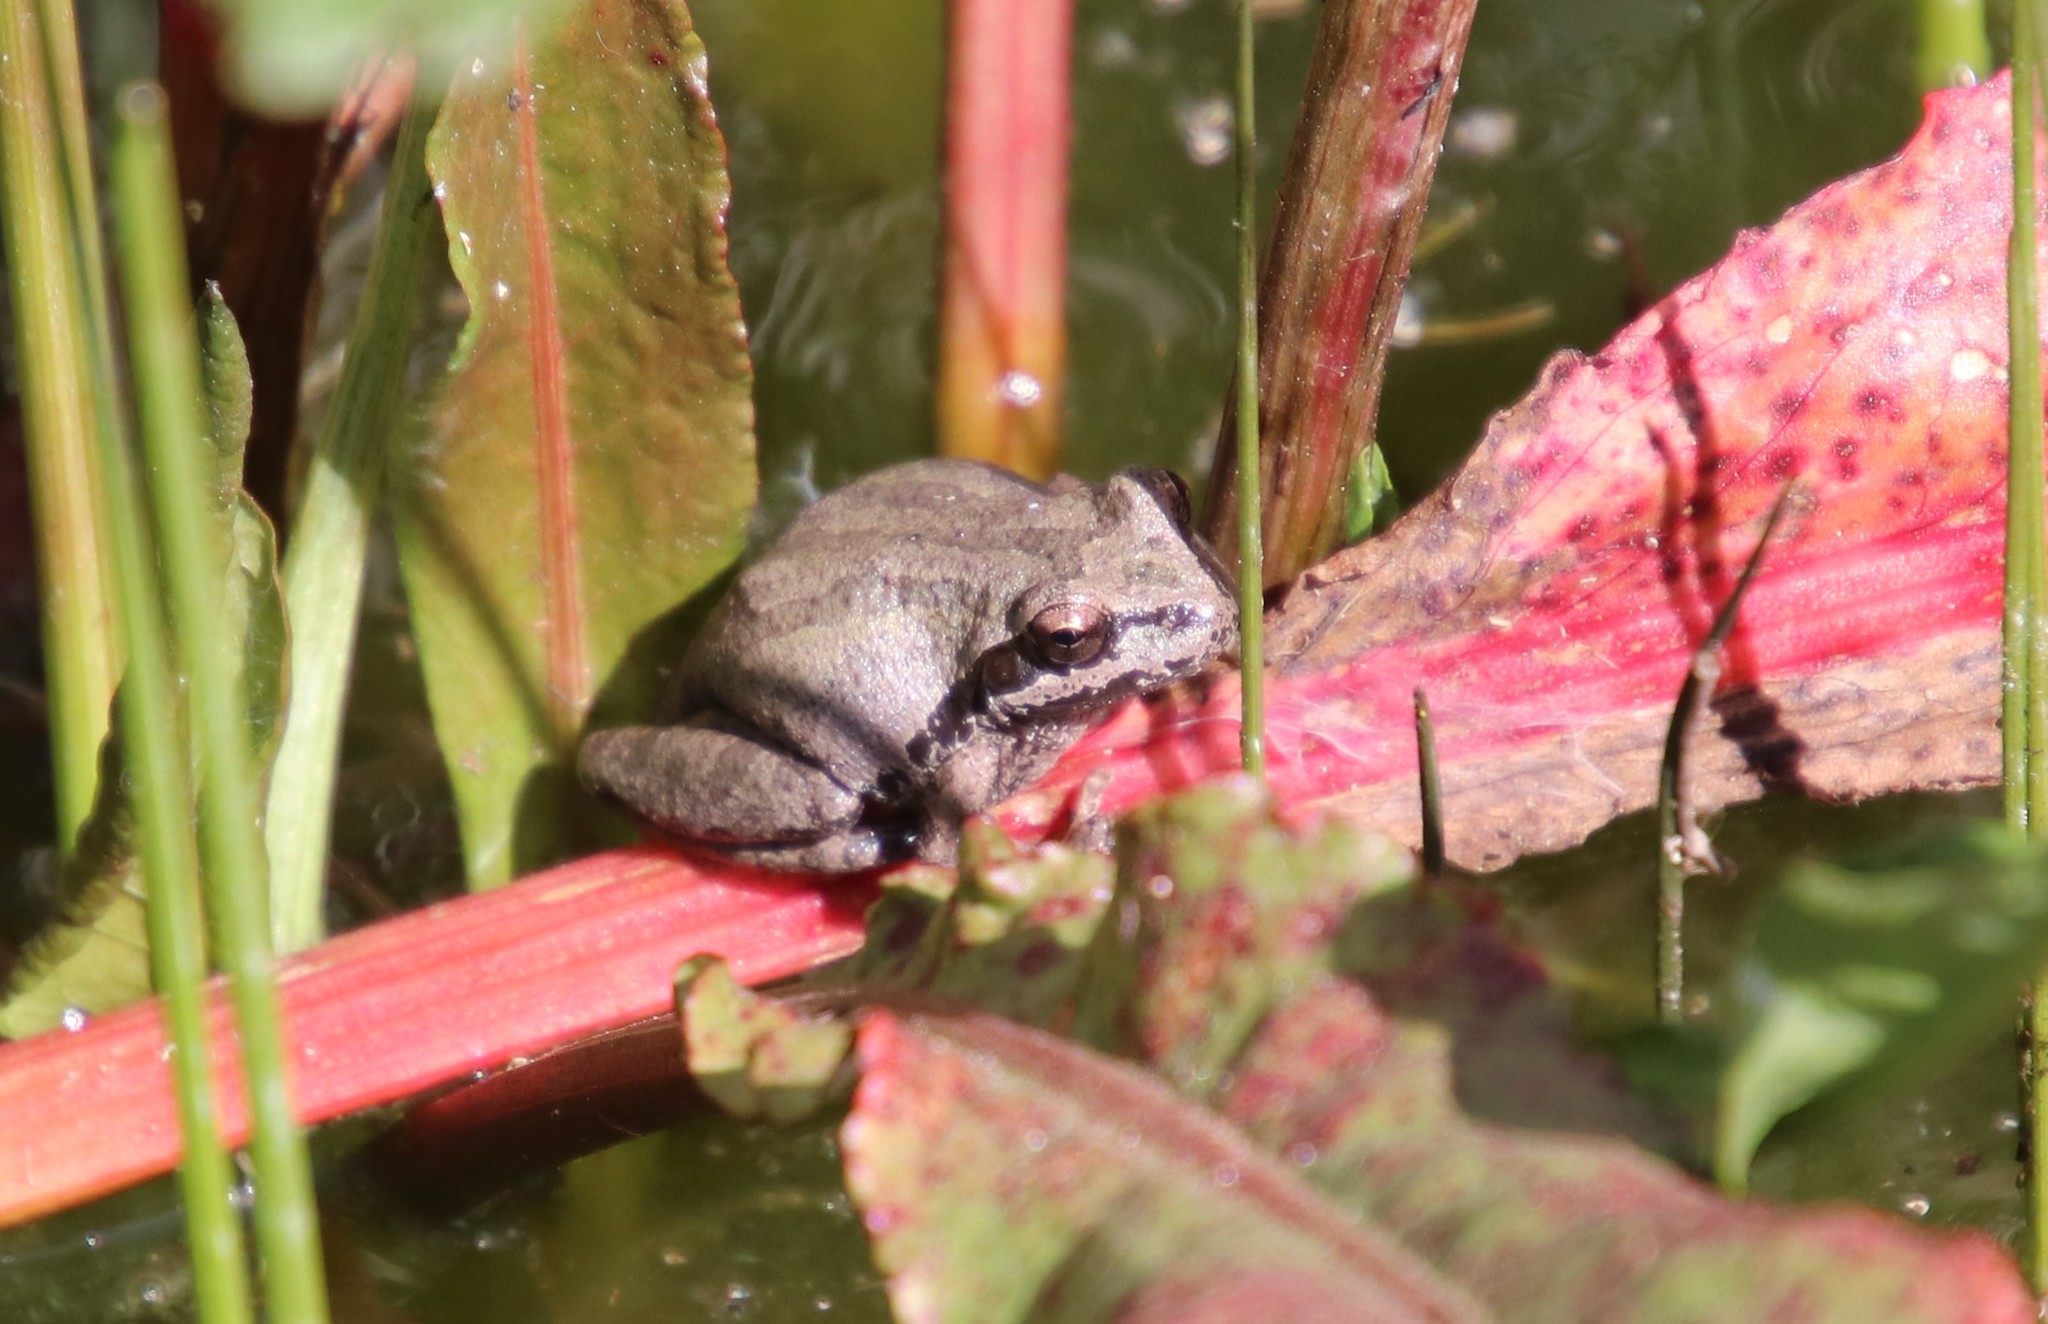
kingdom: Animalia
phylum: Chordata
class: Amphibia
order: Anura
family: Hylidae
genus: Pseudacris
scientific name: Pseudacris regilla
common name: Pacific chorus frog
